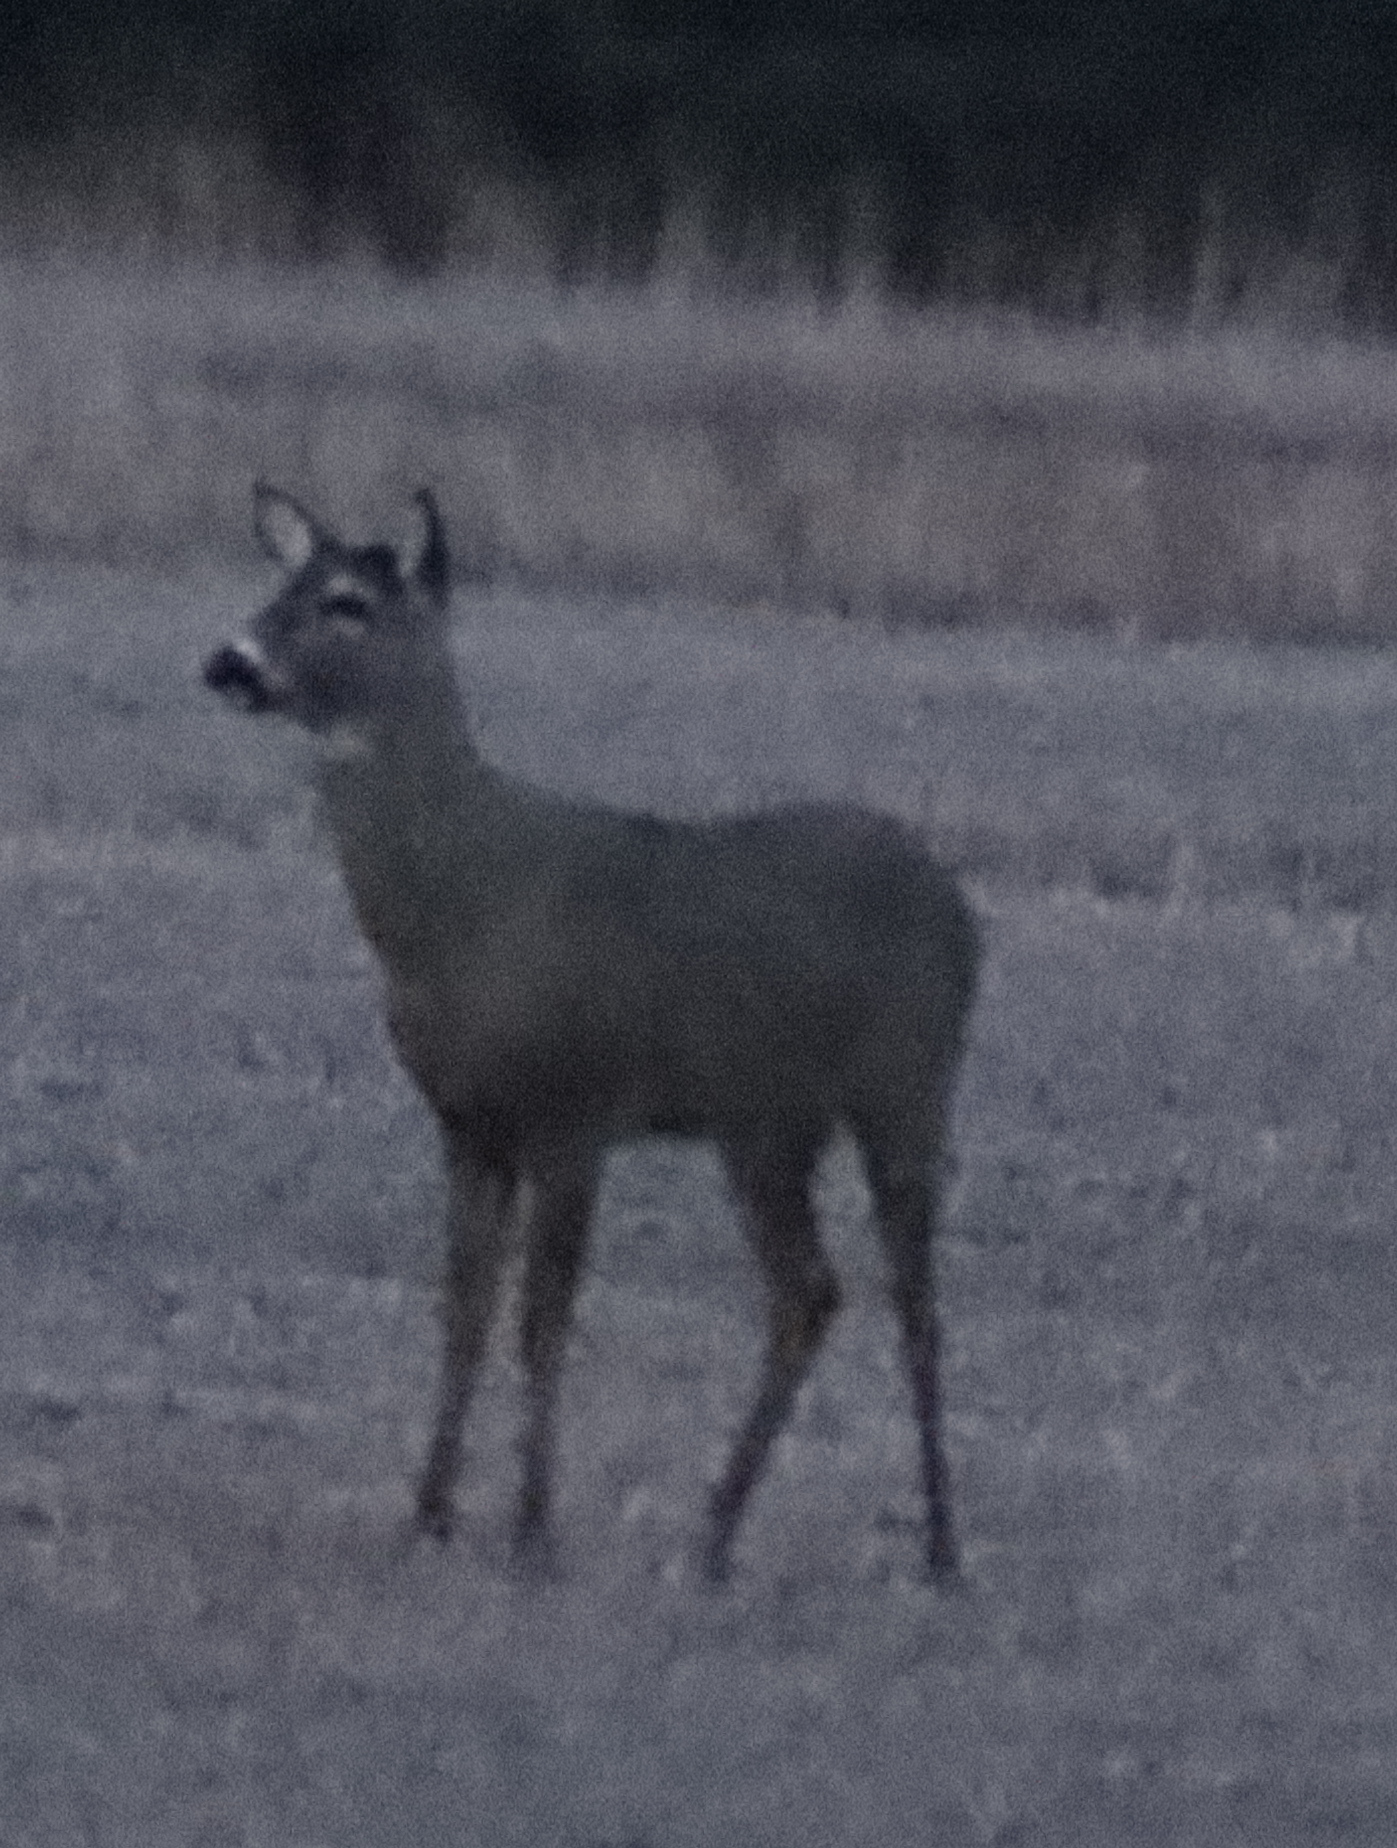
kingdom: Animalia
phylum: Chordata
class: Mammalia
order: Artiodactyla
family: Cervidae
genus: Odocoileus
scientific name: Odocoileus virginianus
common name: White-tailed deer
